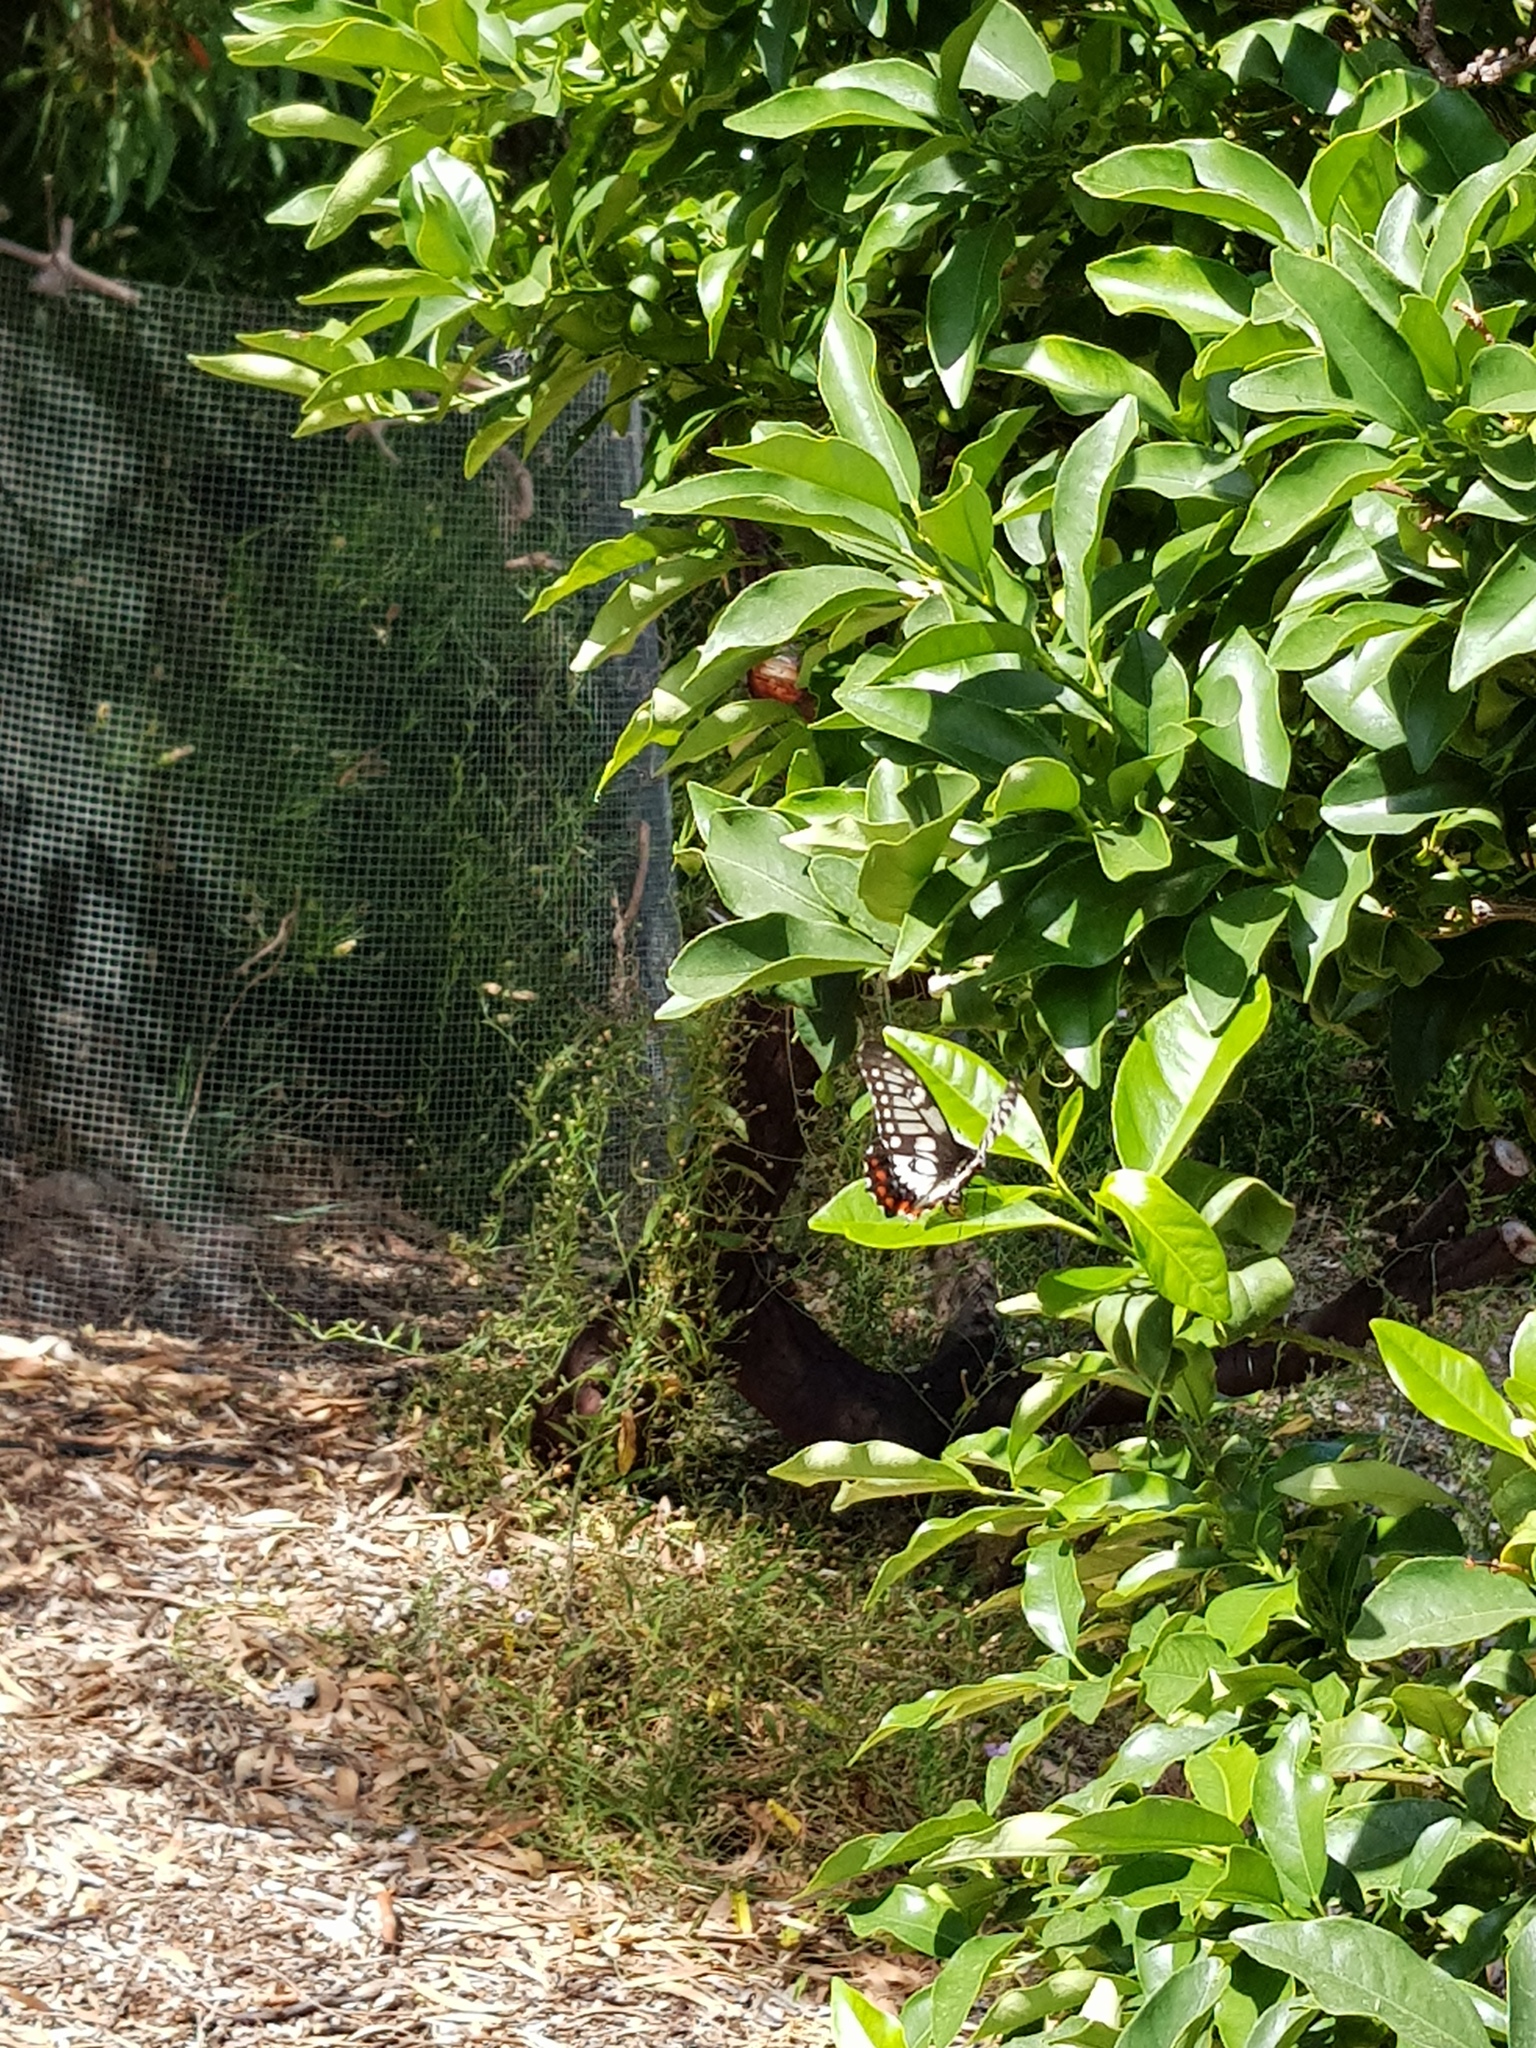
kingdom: Animalia
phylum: Arthropoda
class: Insecta
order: Lepidoptera
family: Papilionidae
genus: Papilio
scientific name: Papilio anactus
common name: Dingy swallowtail
